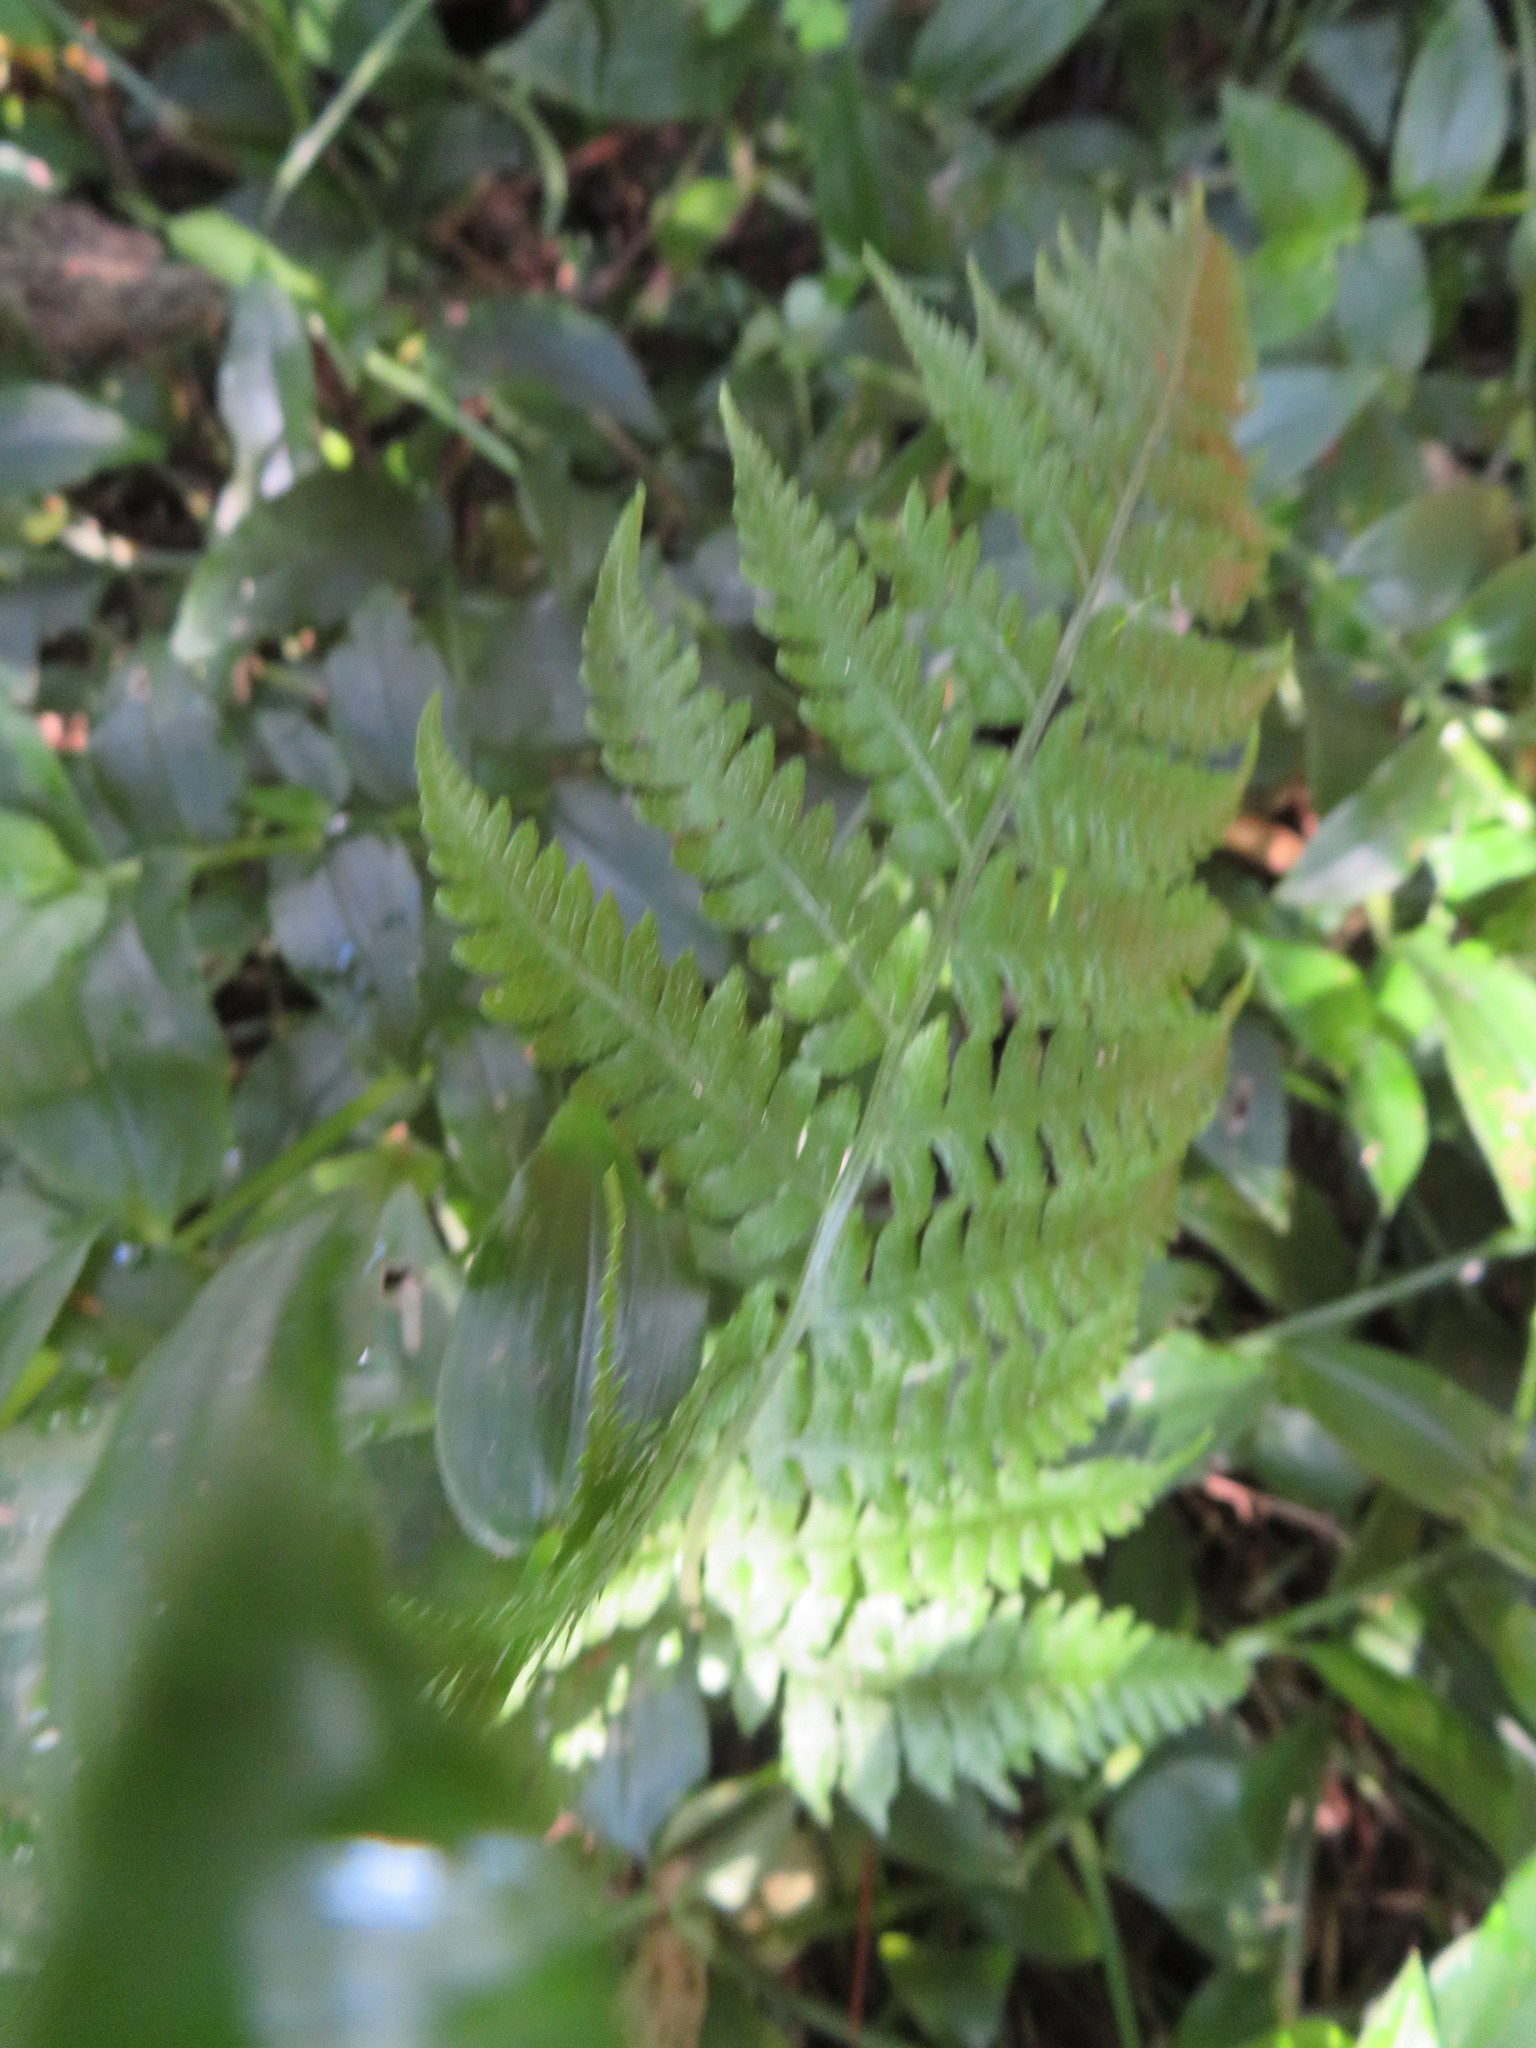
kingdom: Plantae
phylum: Tracheophyta
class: Polypodiopsida
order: Polypodiales
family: Athyriaceae
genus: Diplazium
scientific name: Diplazium congruum
